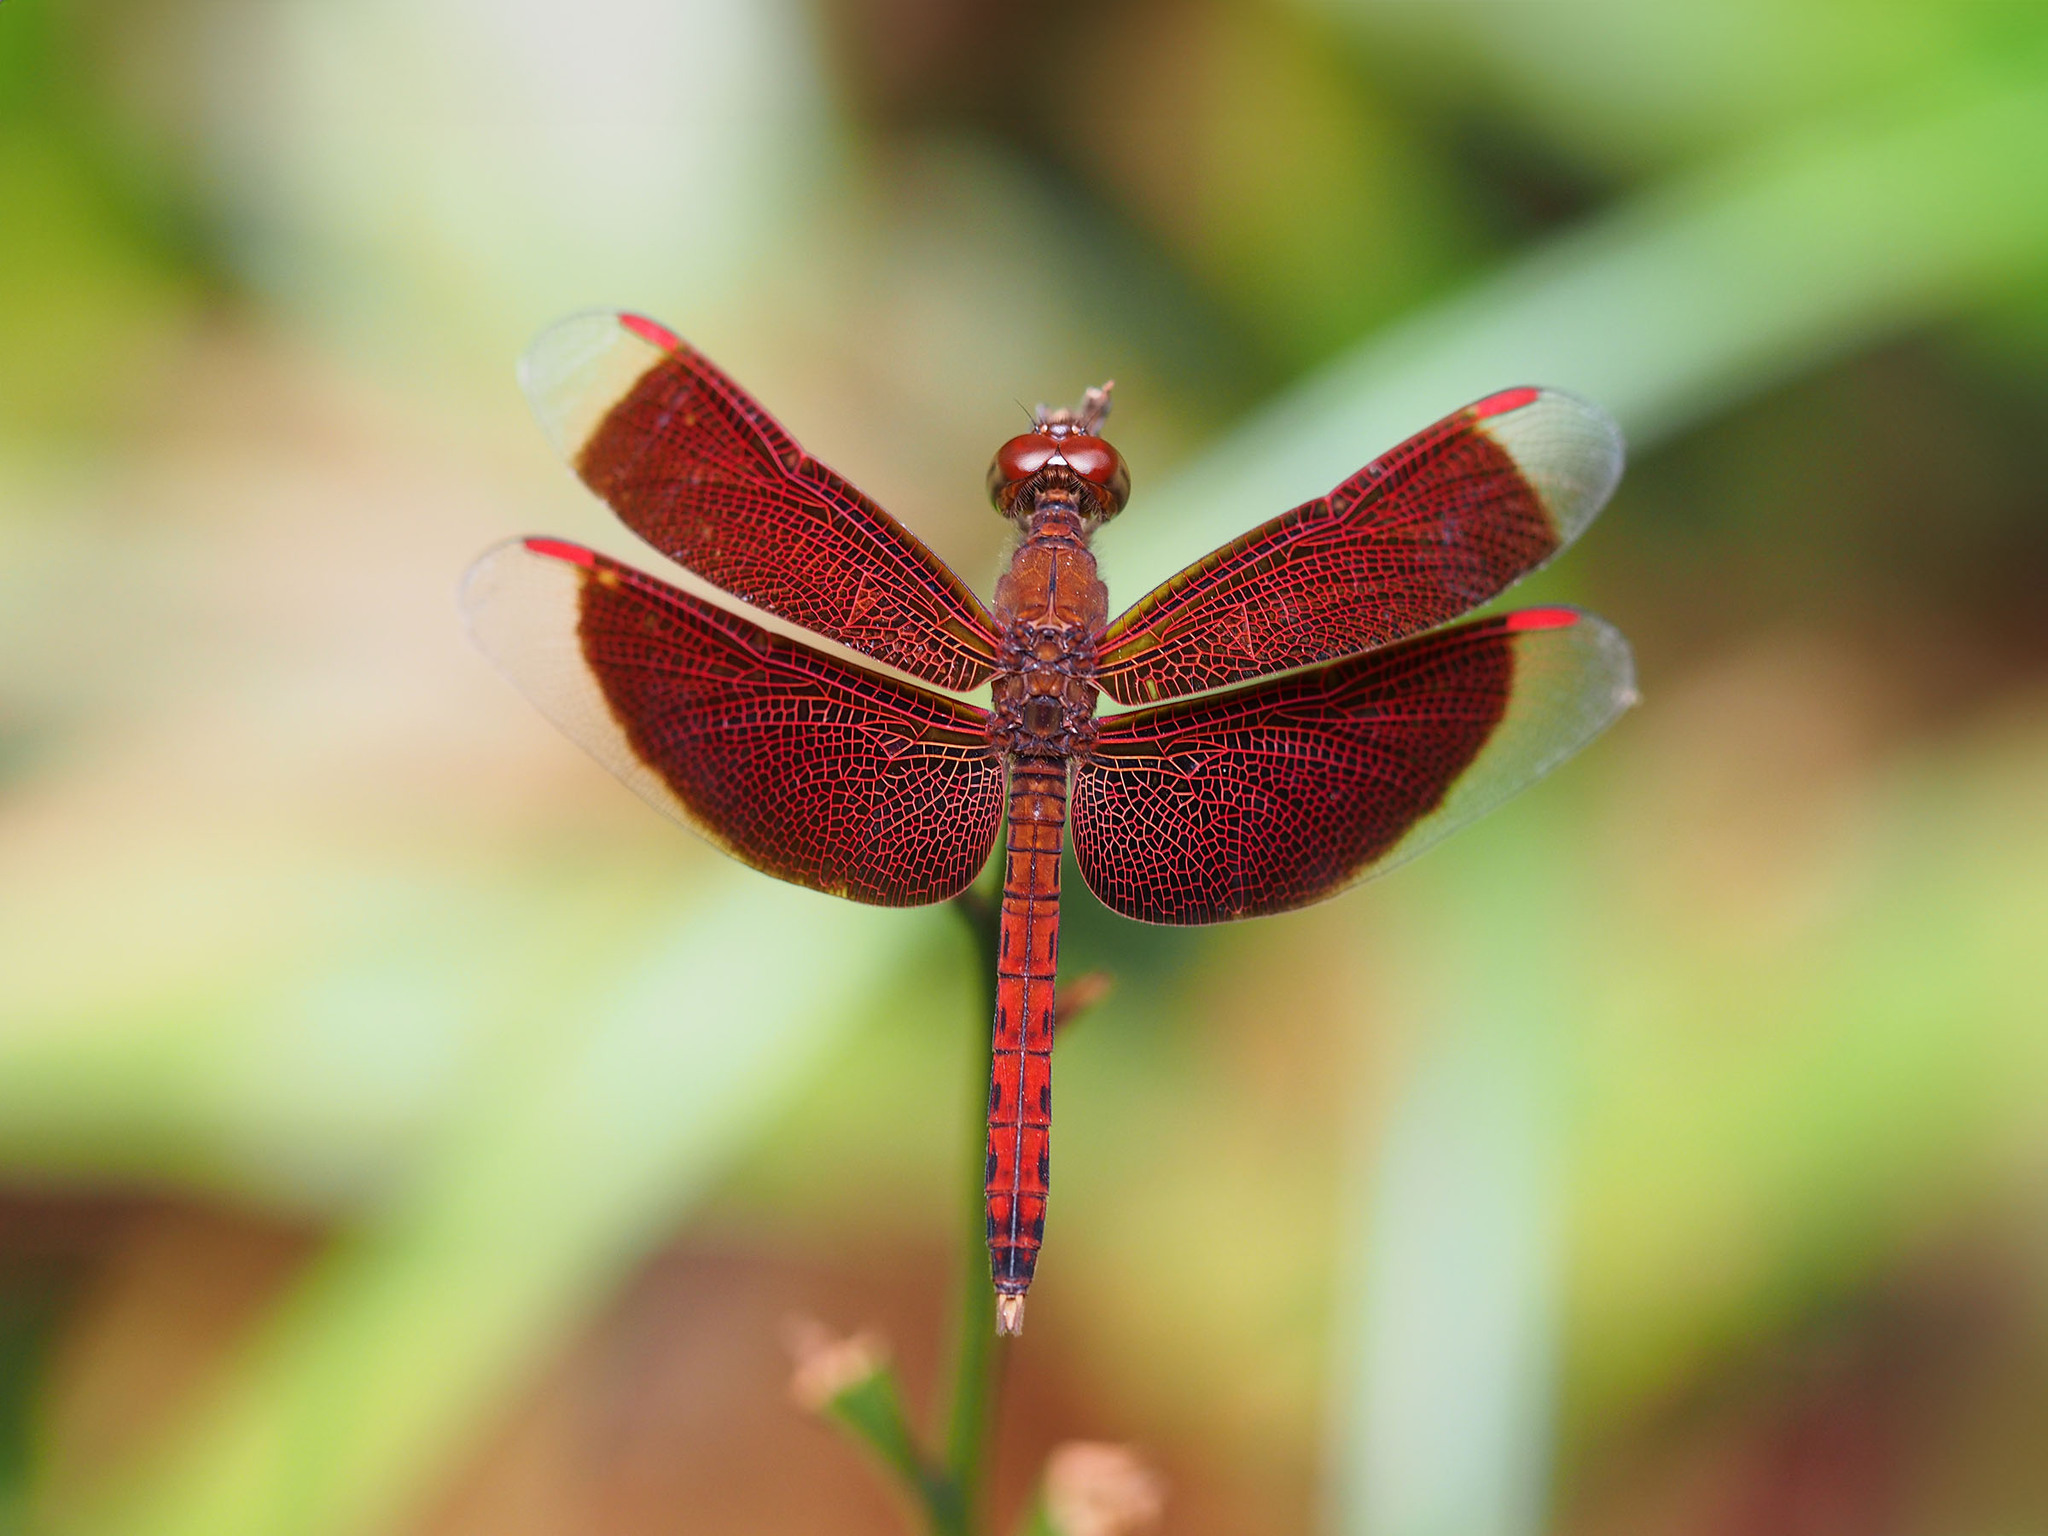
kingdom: Animalia
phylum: Arthropoda
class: Insecta
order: Odonata
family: Libellulidae
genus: Neurothemis
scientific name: Neurothemis fluctuans
